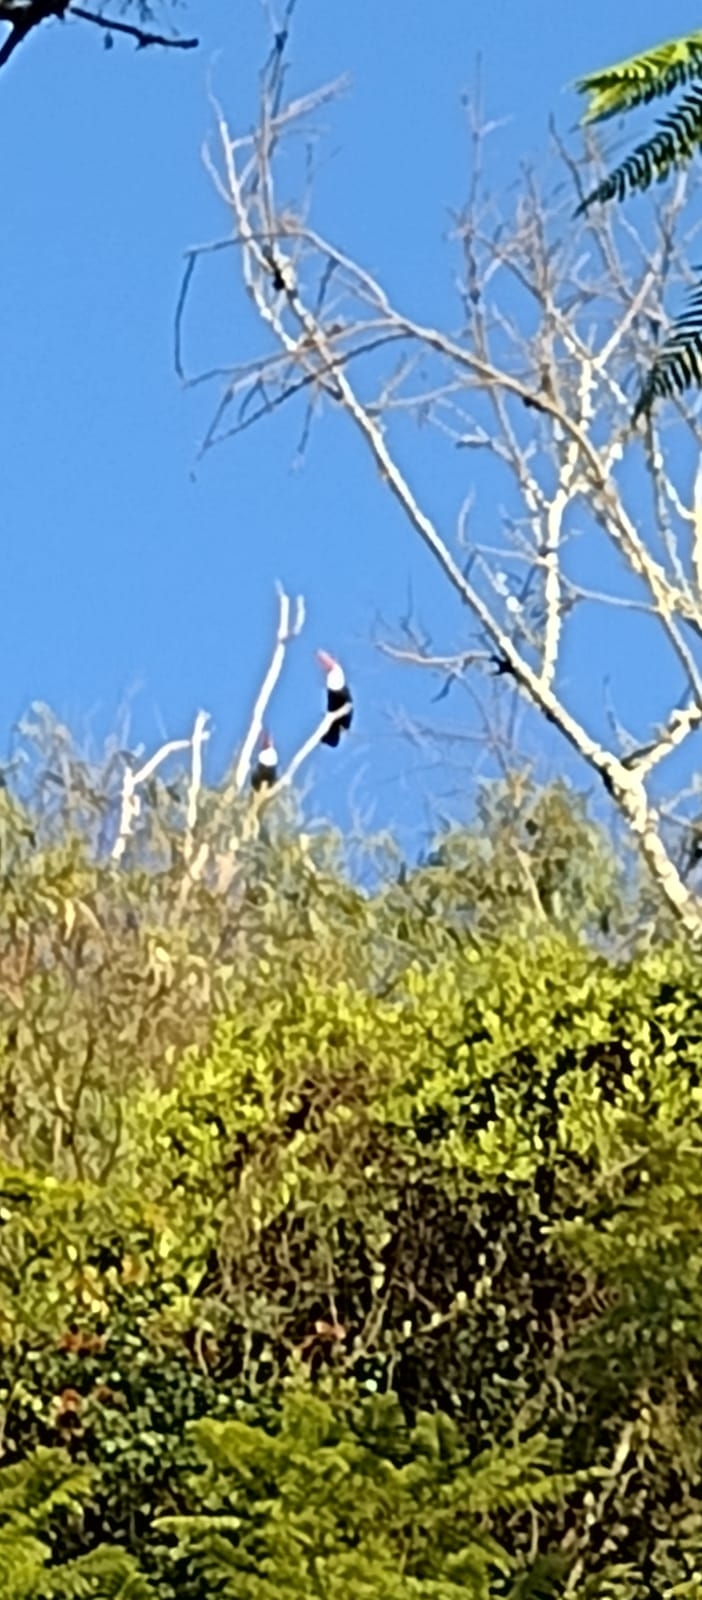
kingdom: Animalia
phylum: Chordata
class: Aves
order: Piciformes
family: Ramphastidae
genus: Ramphastos
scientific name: Ramphastos toco
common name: Toco toucan
